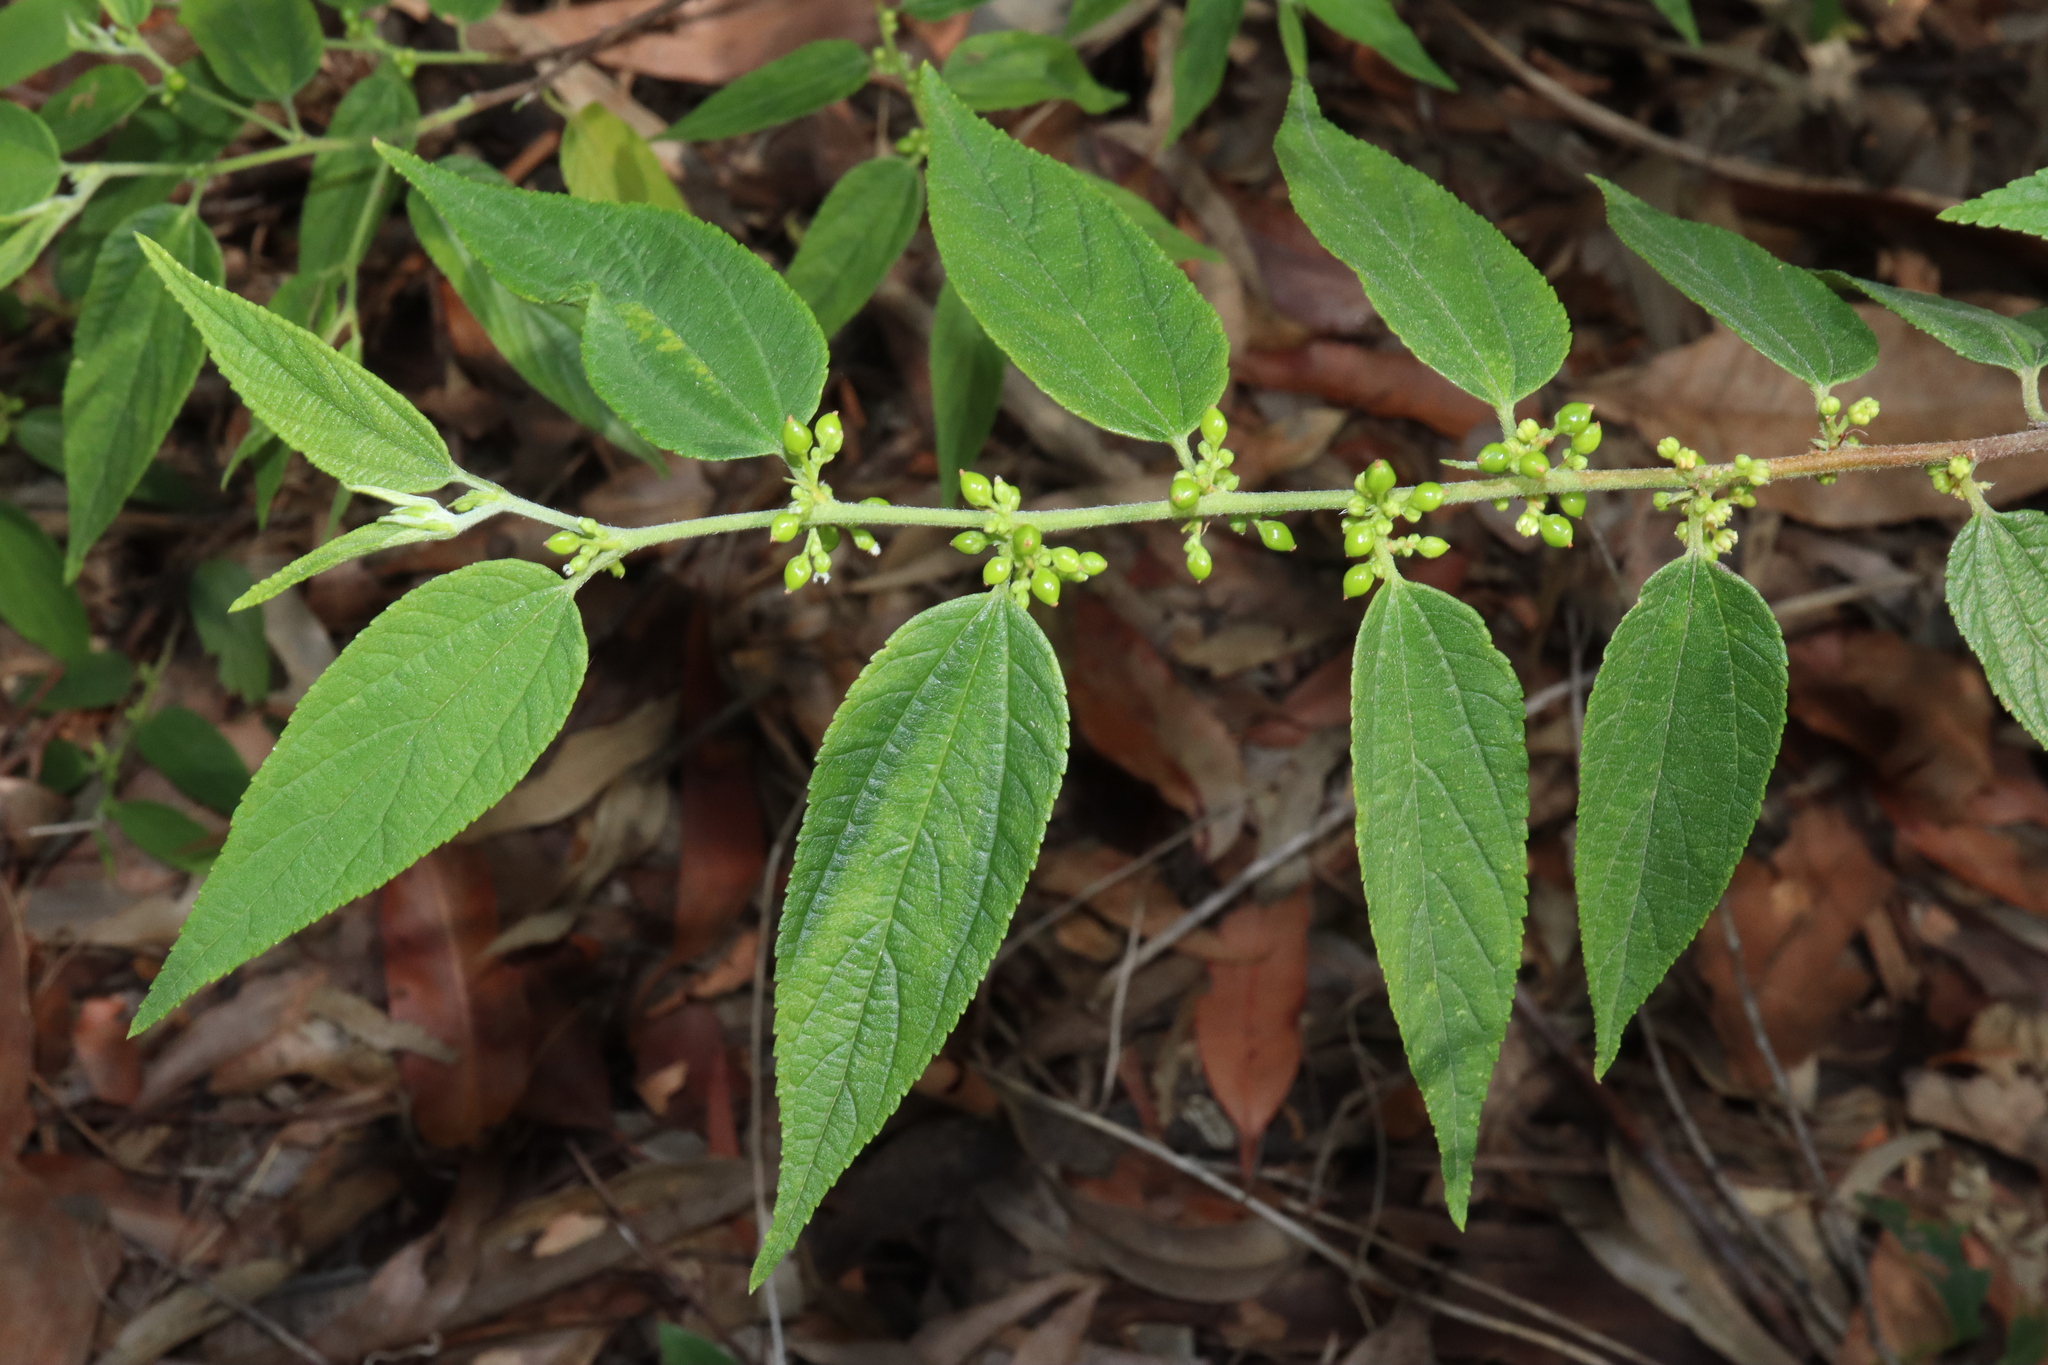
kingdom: Plantae
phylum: Tracheophyta
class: Magnoliopsida
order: Rosales
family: Cannabaceae
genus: Trema
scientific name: Trema tomentosum
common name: Peach-leaf-poisonbush
